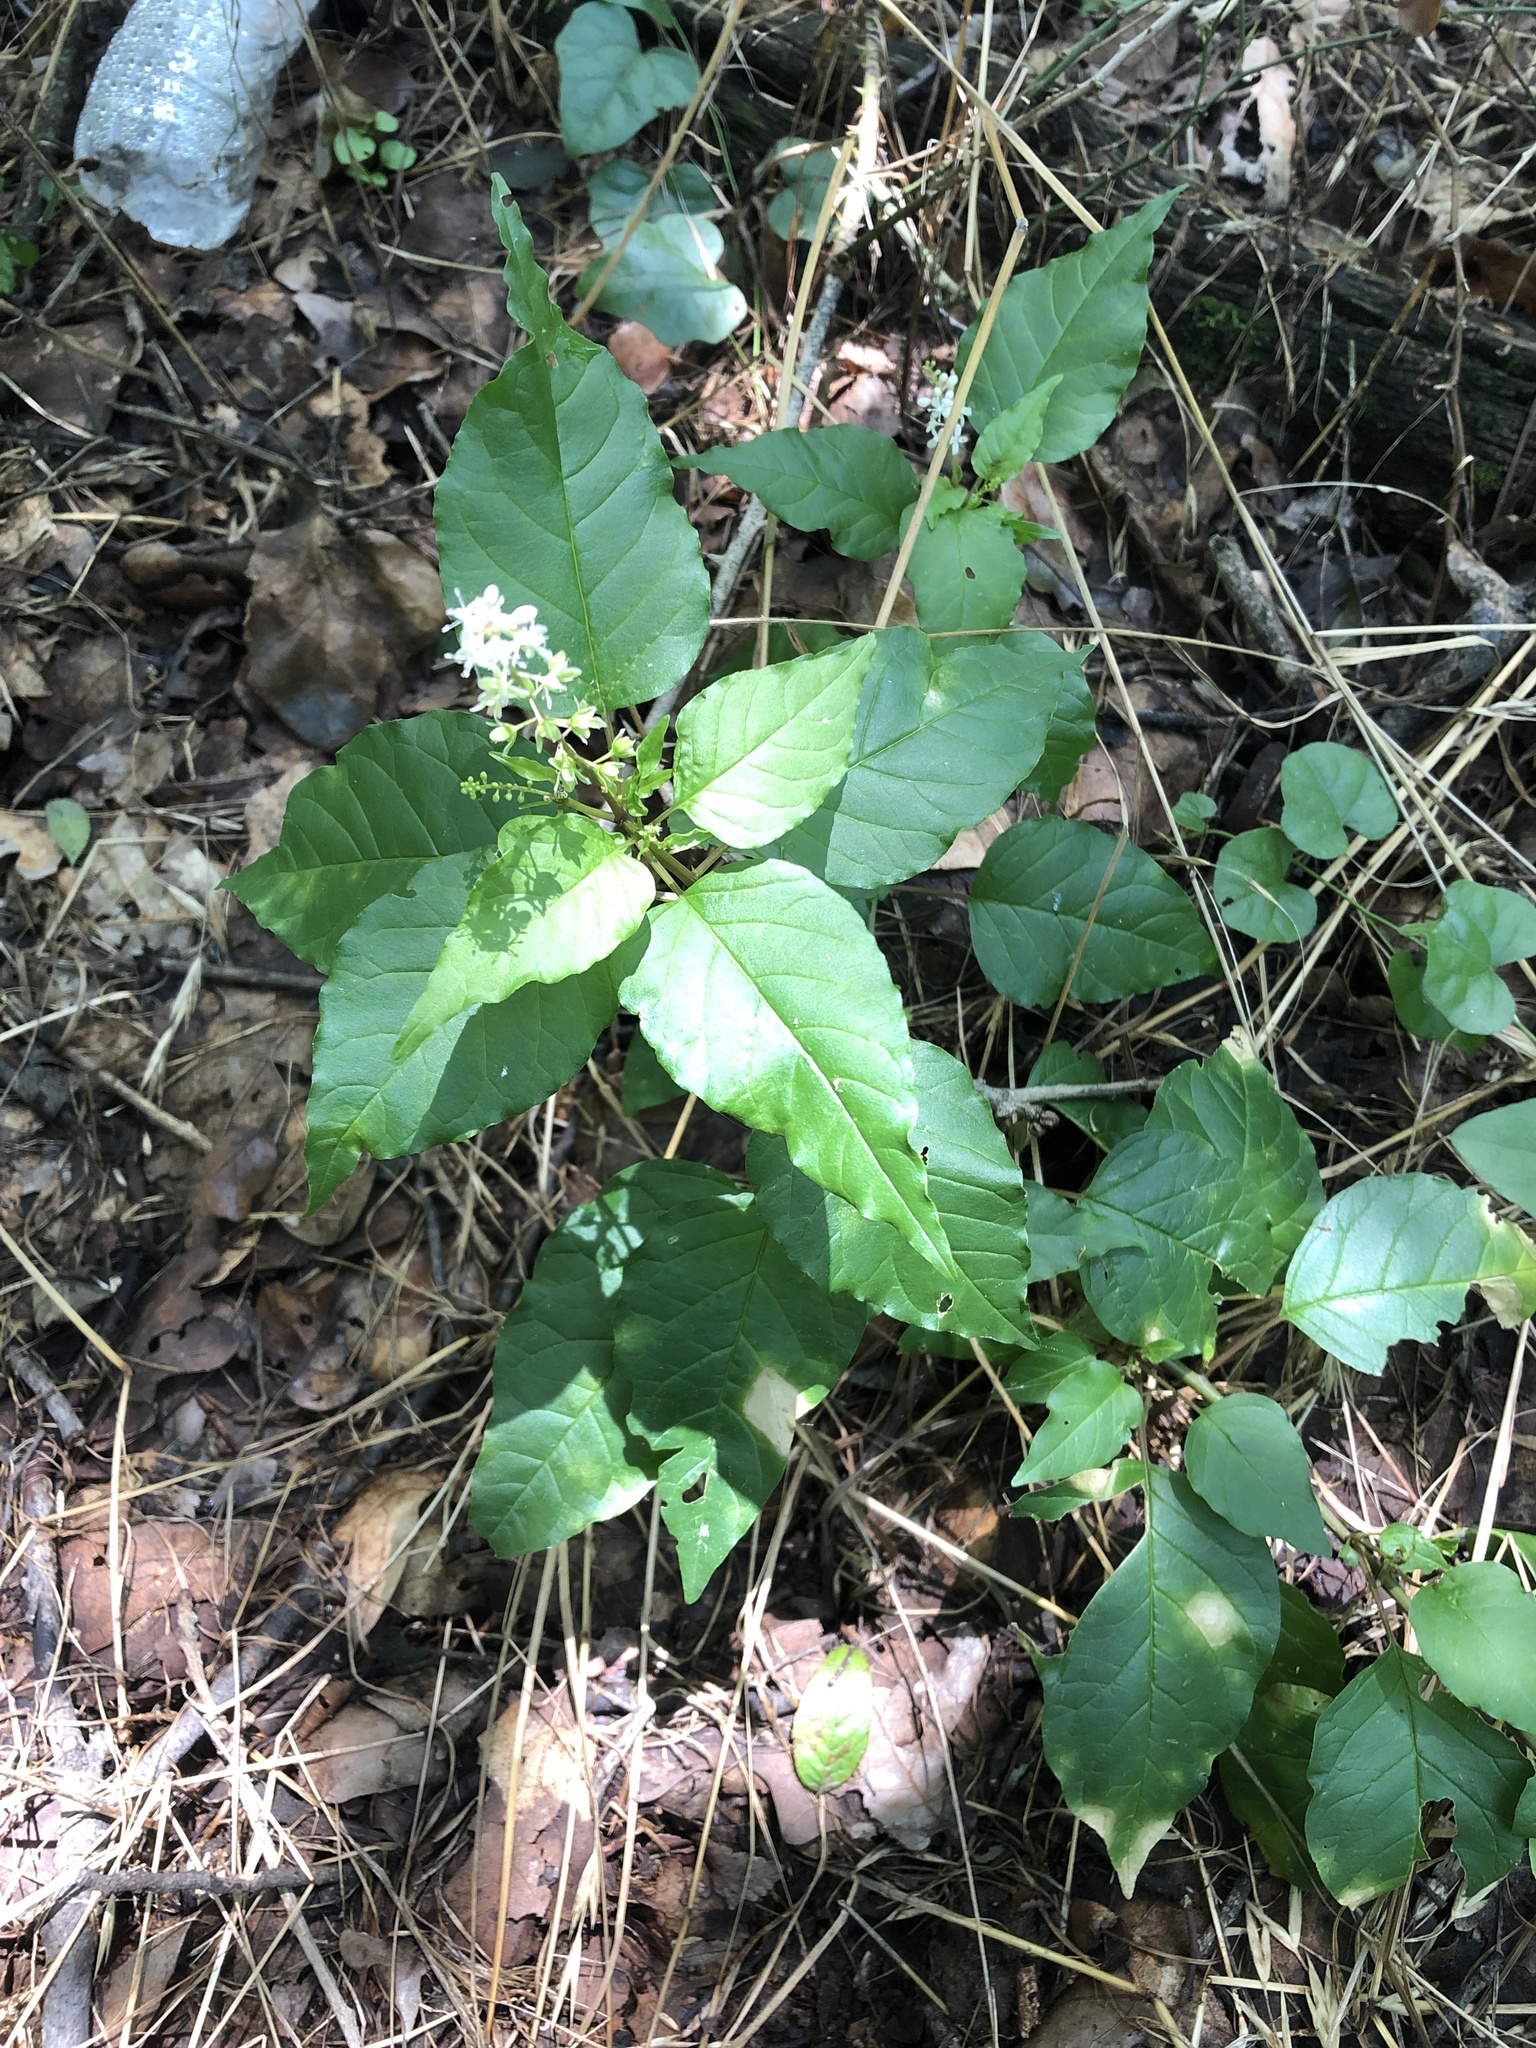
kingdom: Plantae
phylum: Tracheophyta
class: Magnoliopsida
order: Caryophyllales
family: Phytolaccaceae
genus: Rivina
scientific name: Rivina humilis
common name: Rougeplant
